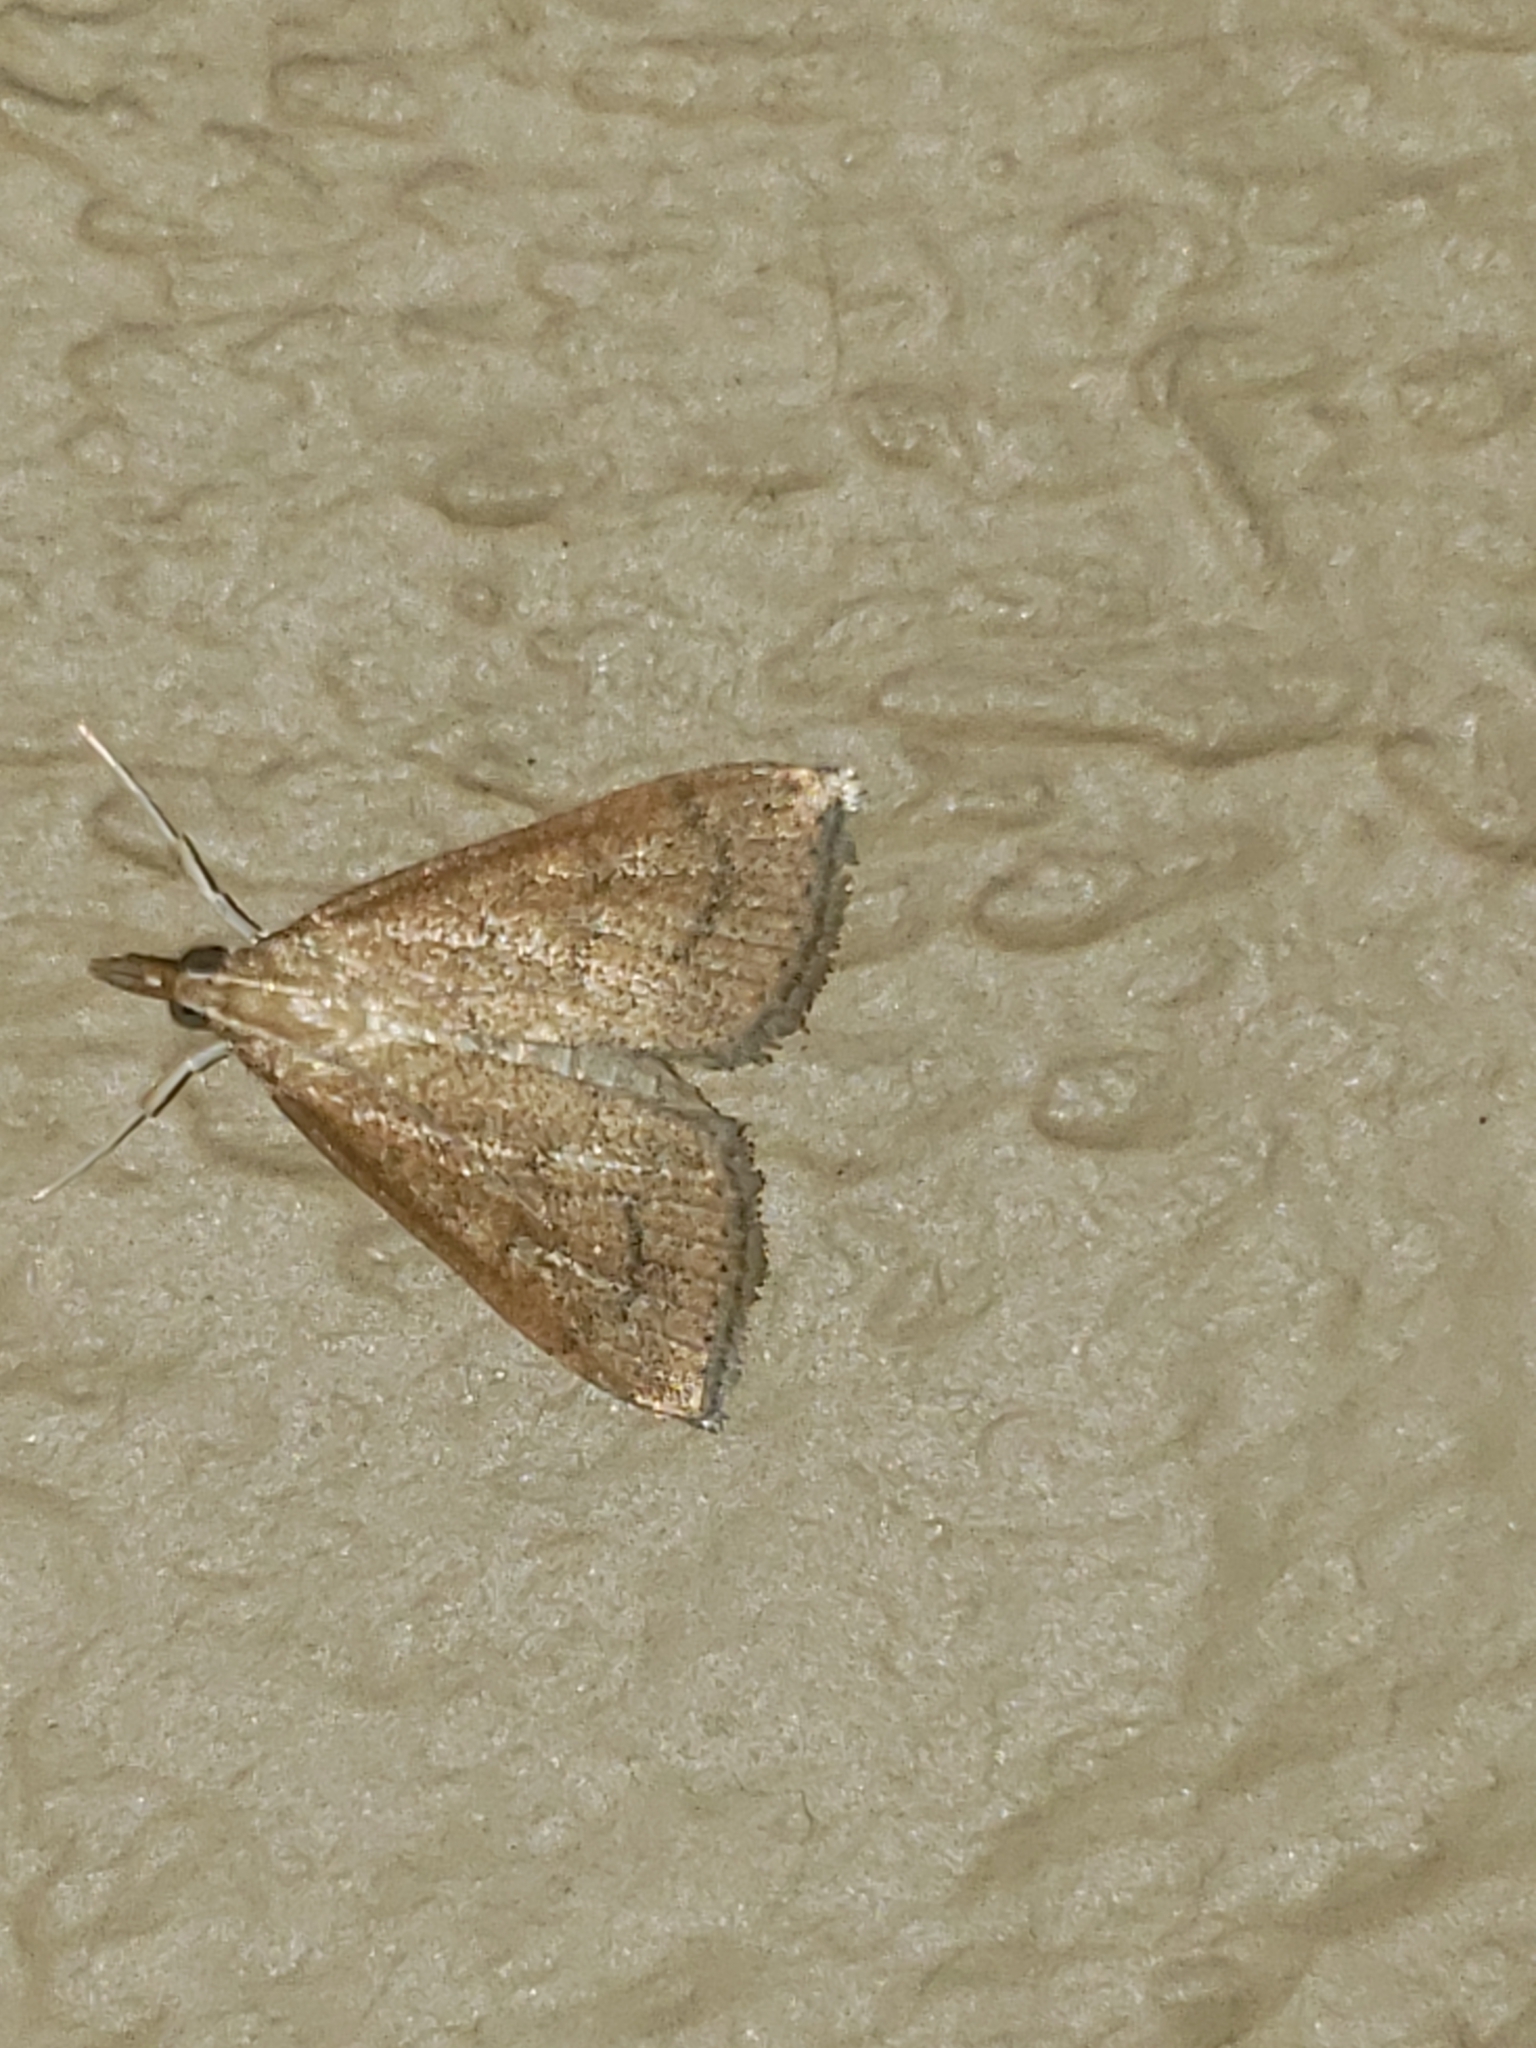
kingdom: Animalia
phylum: Arthropoda
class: Insecta
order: Lepidoptera
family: Crambidae
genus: Udea
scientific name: Udea rubigalis
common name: Celery leaftier moth
